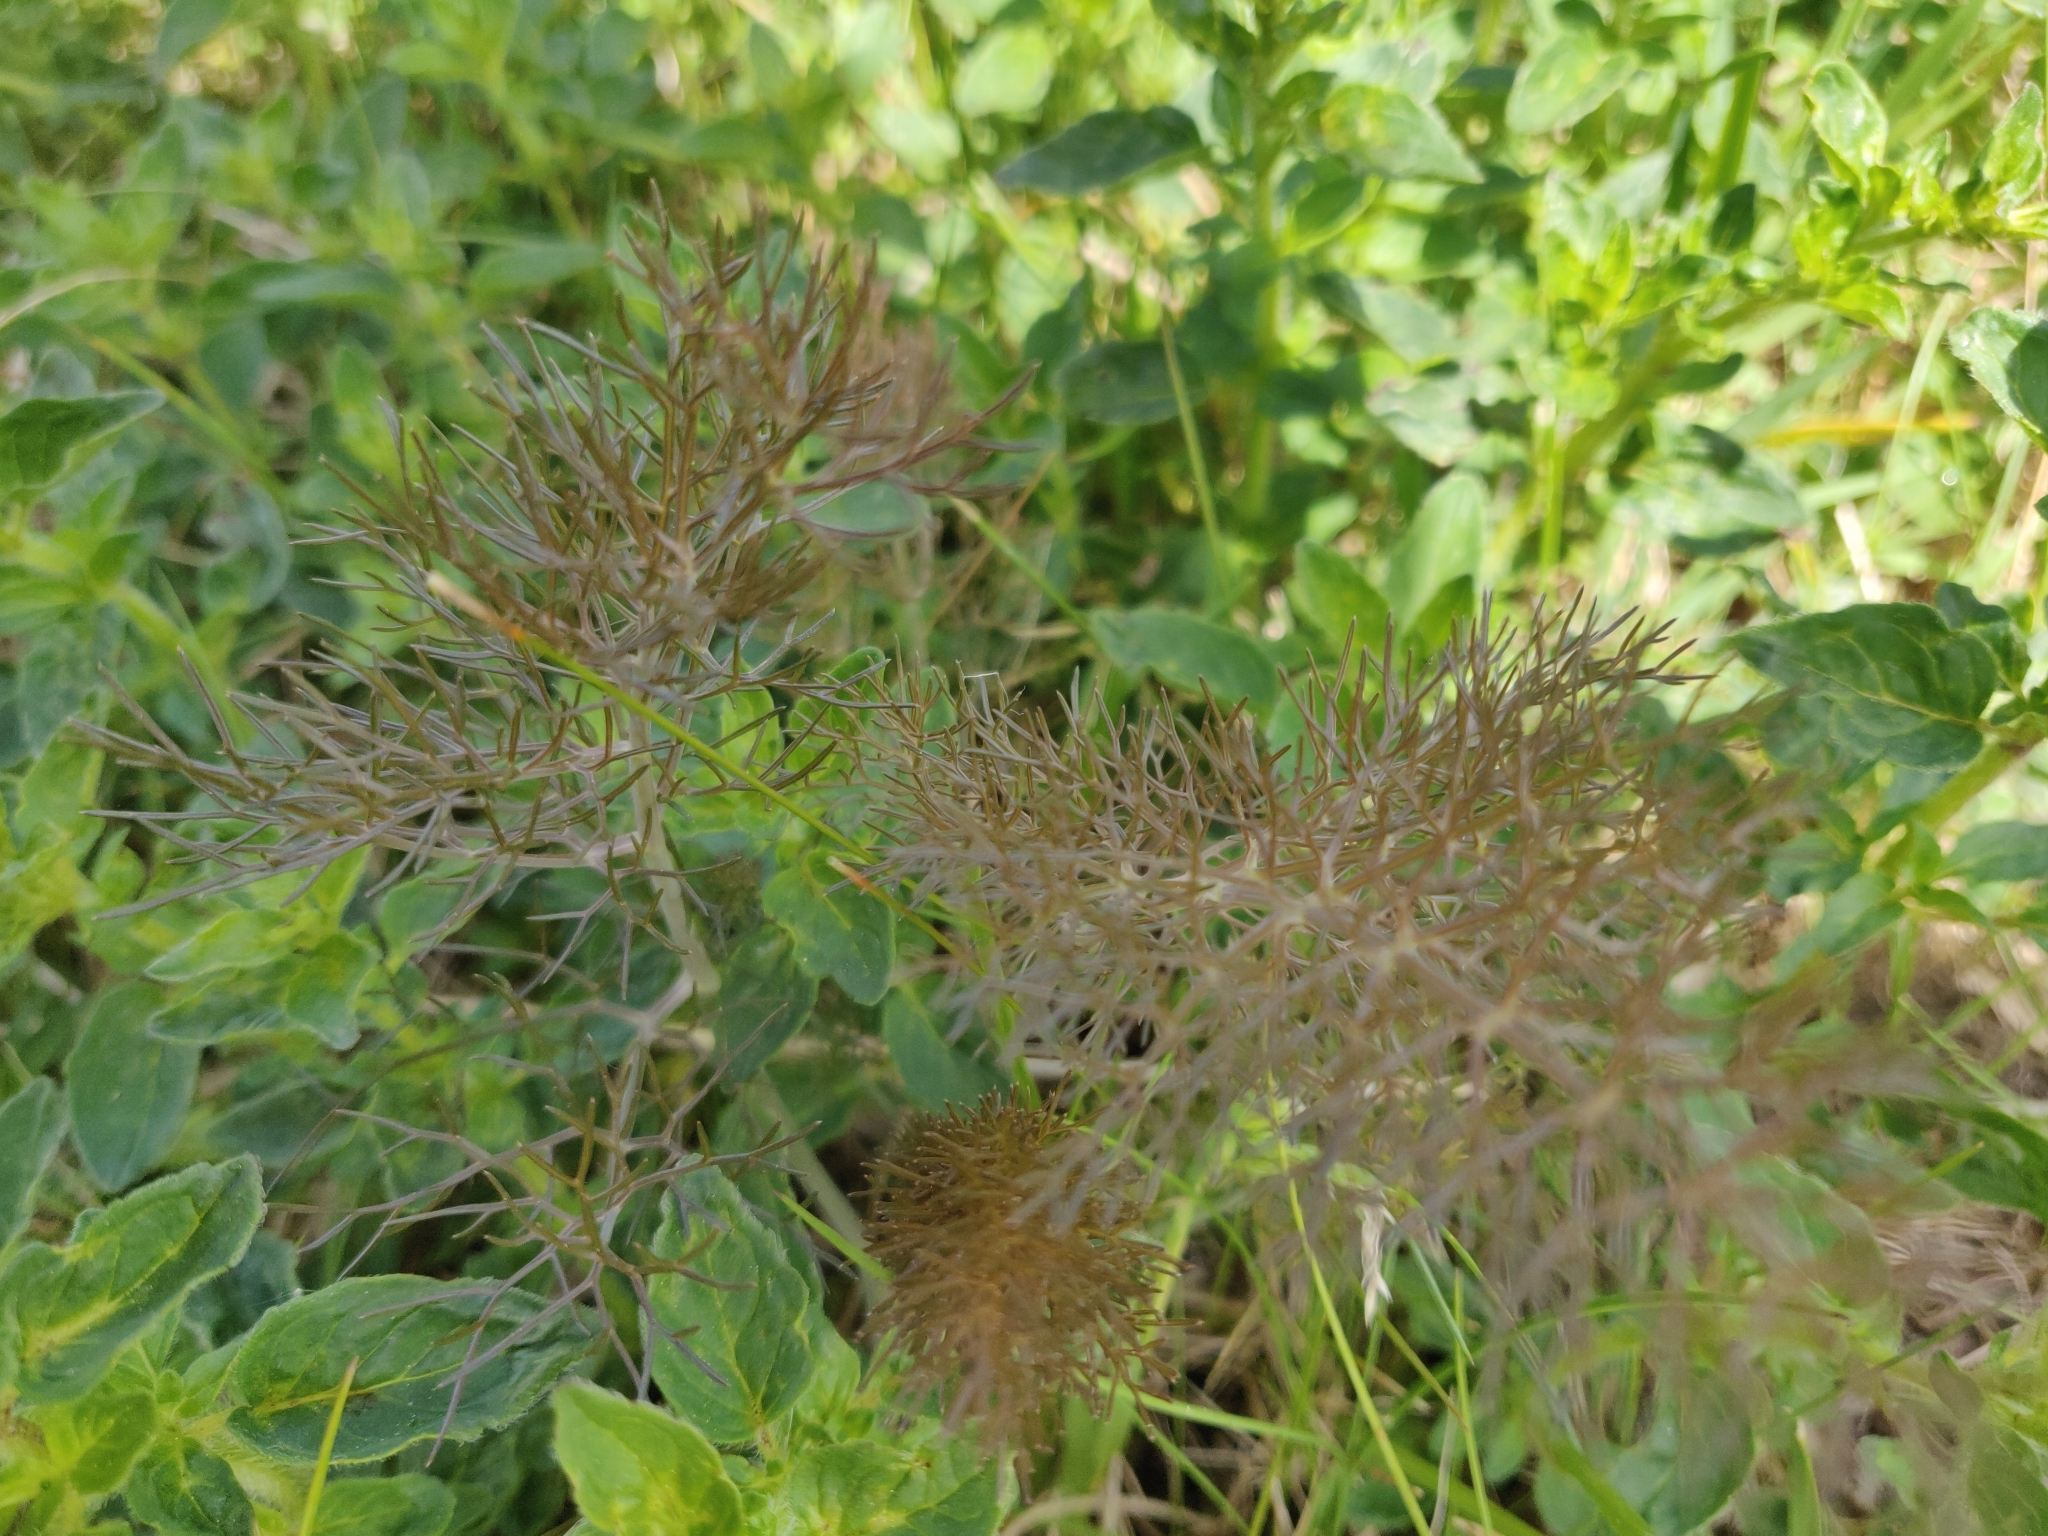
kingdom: Plantae
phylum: Tracheophyta
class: Magnoliopsida
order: Apiales
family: Apiaceae
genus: Foeniculum
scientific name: Foeniculum vulgare
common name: Fennel
